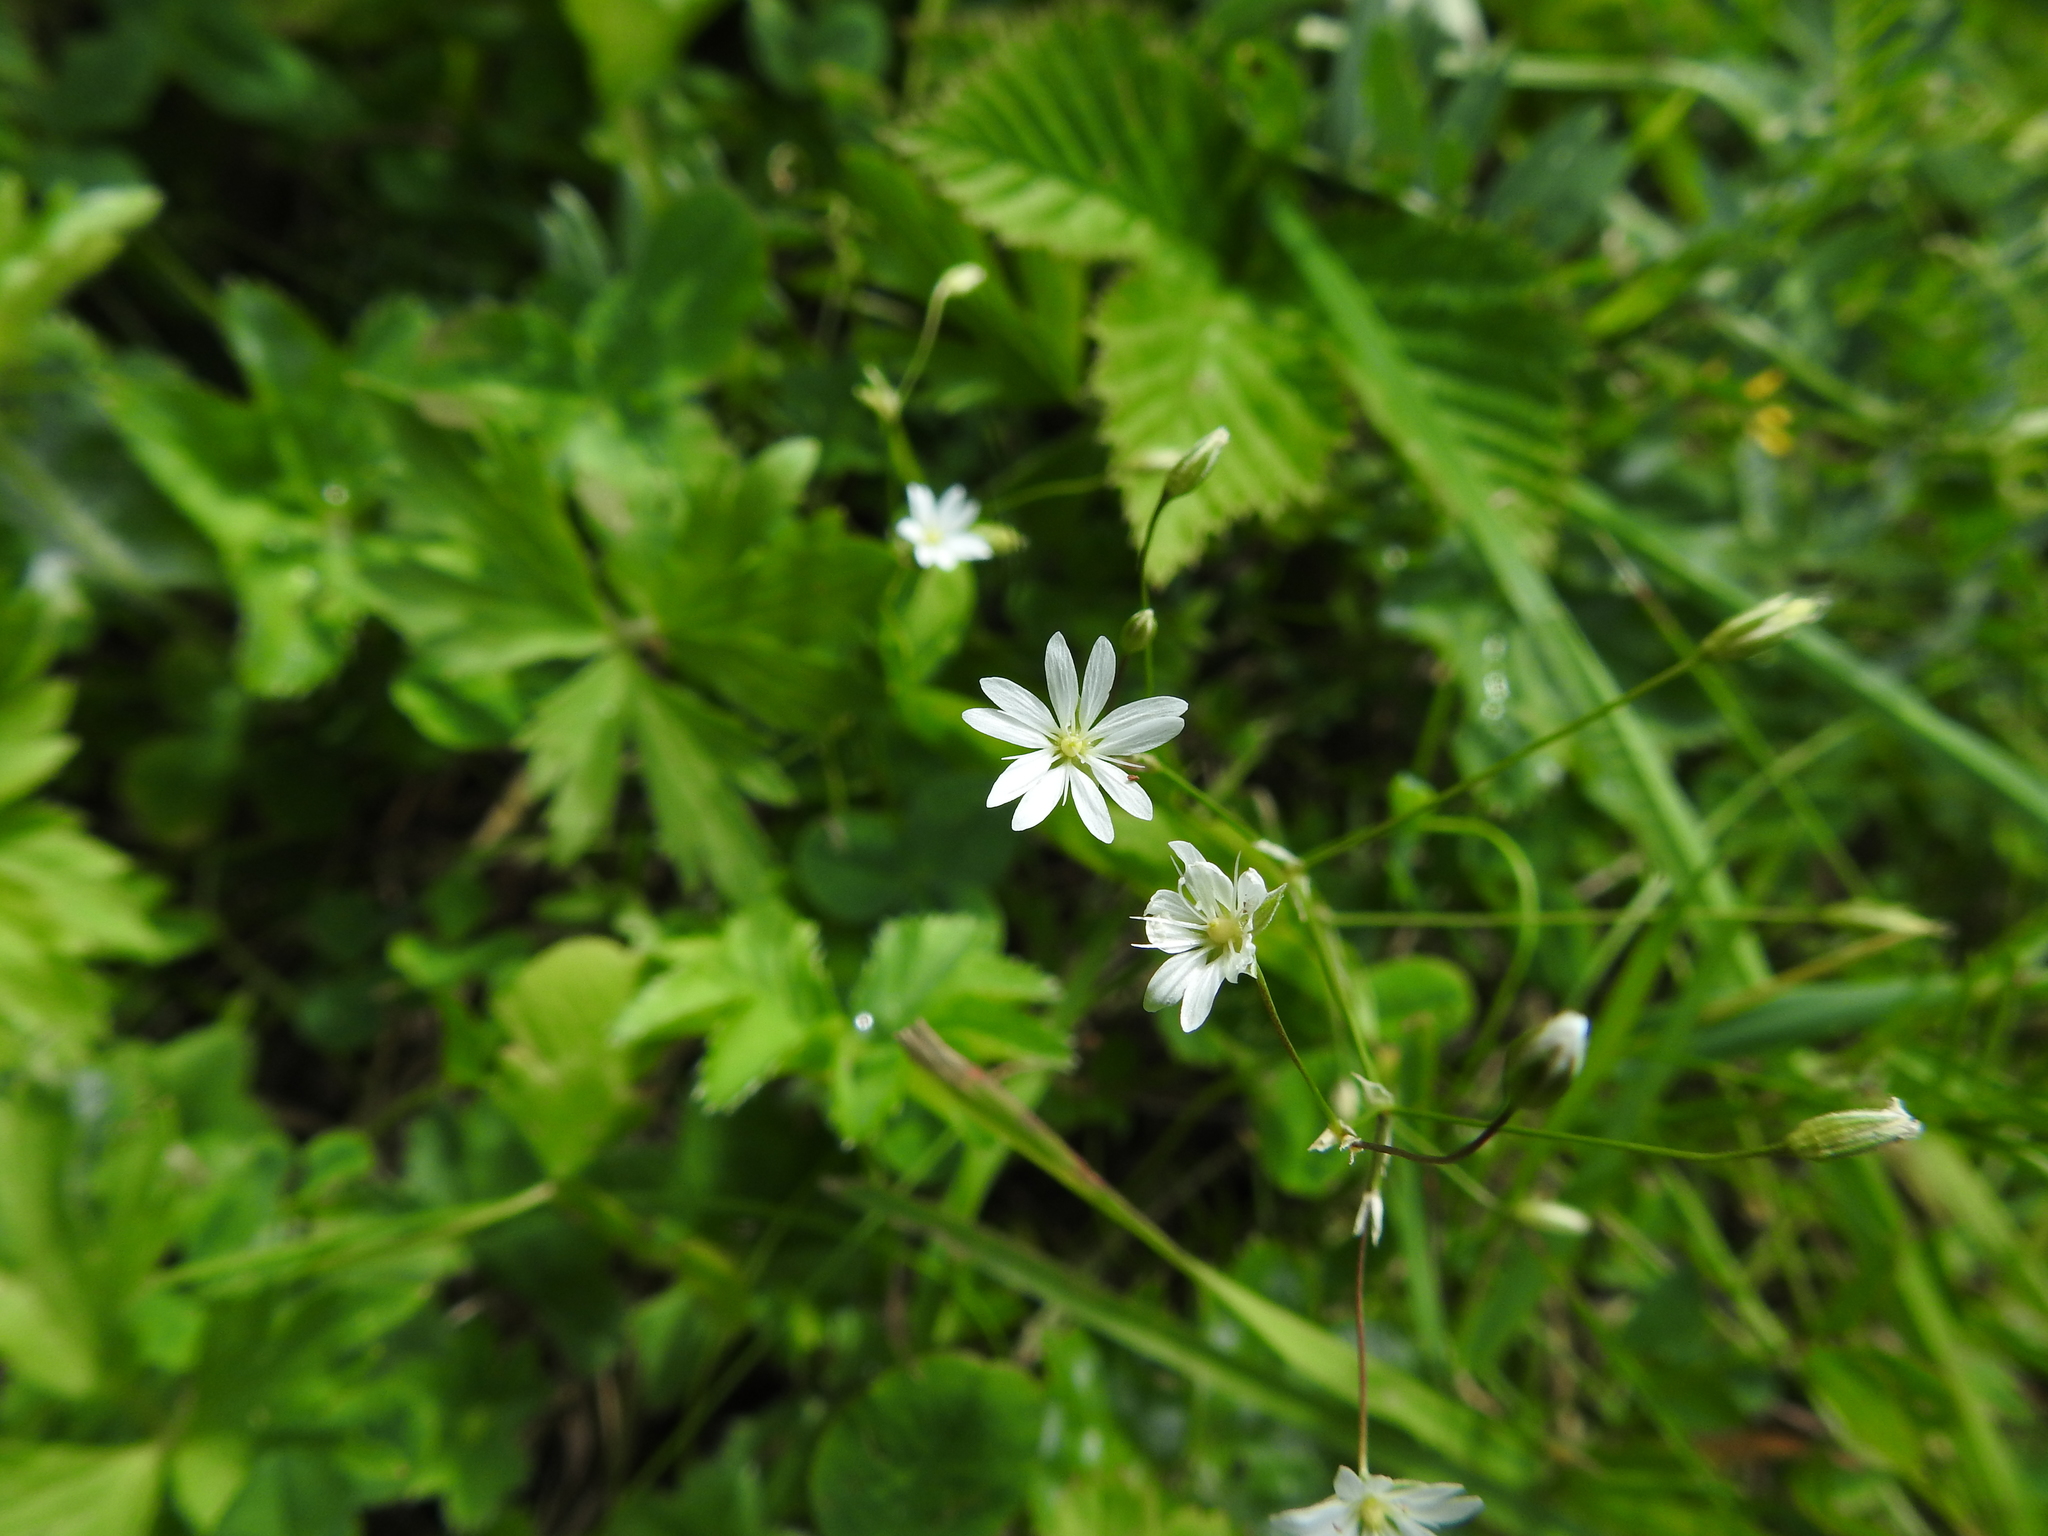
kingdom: Plantae
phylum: Tracheophyta
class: Magnoliopsida
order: Caryophyllales
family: Caryophyllaceae
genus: Stellaria
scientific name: Stellaria graminea
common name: Grass-like starwort
